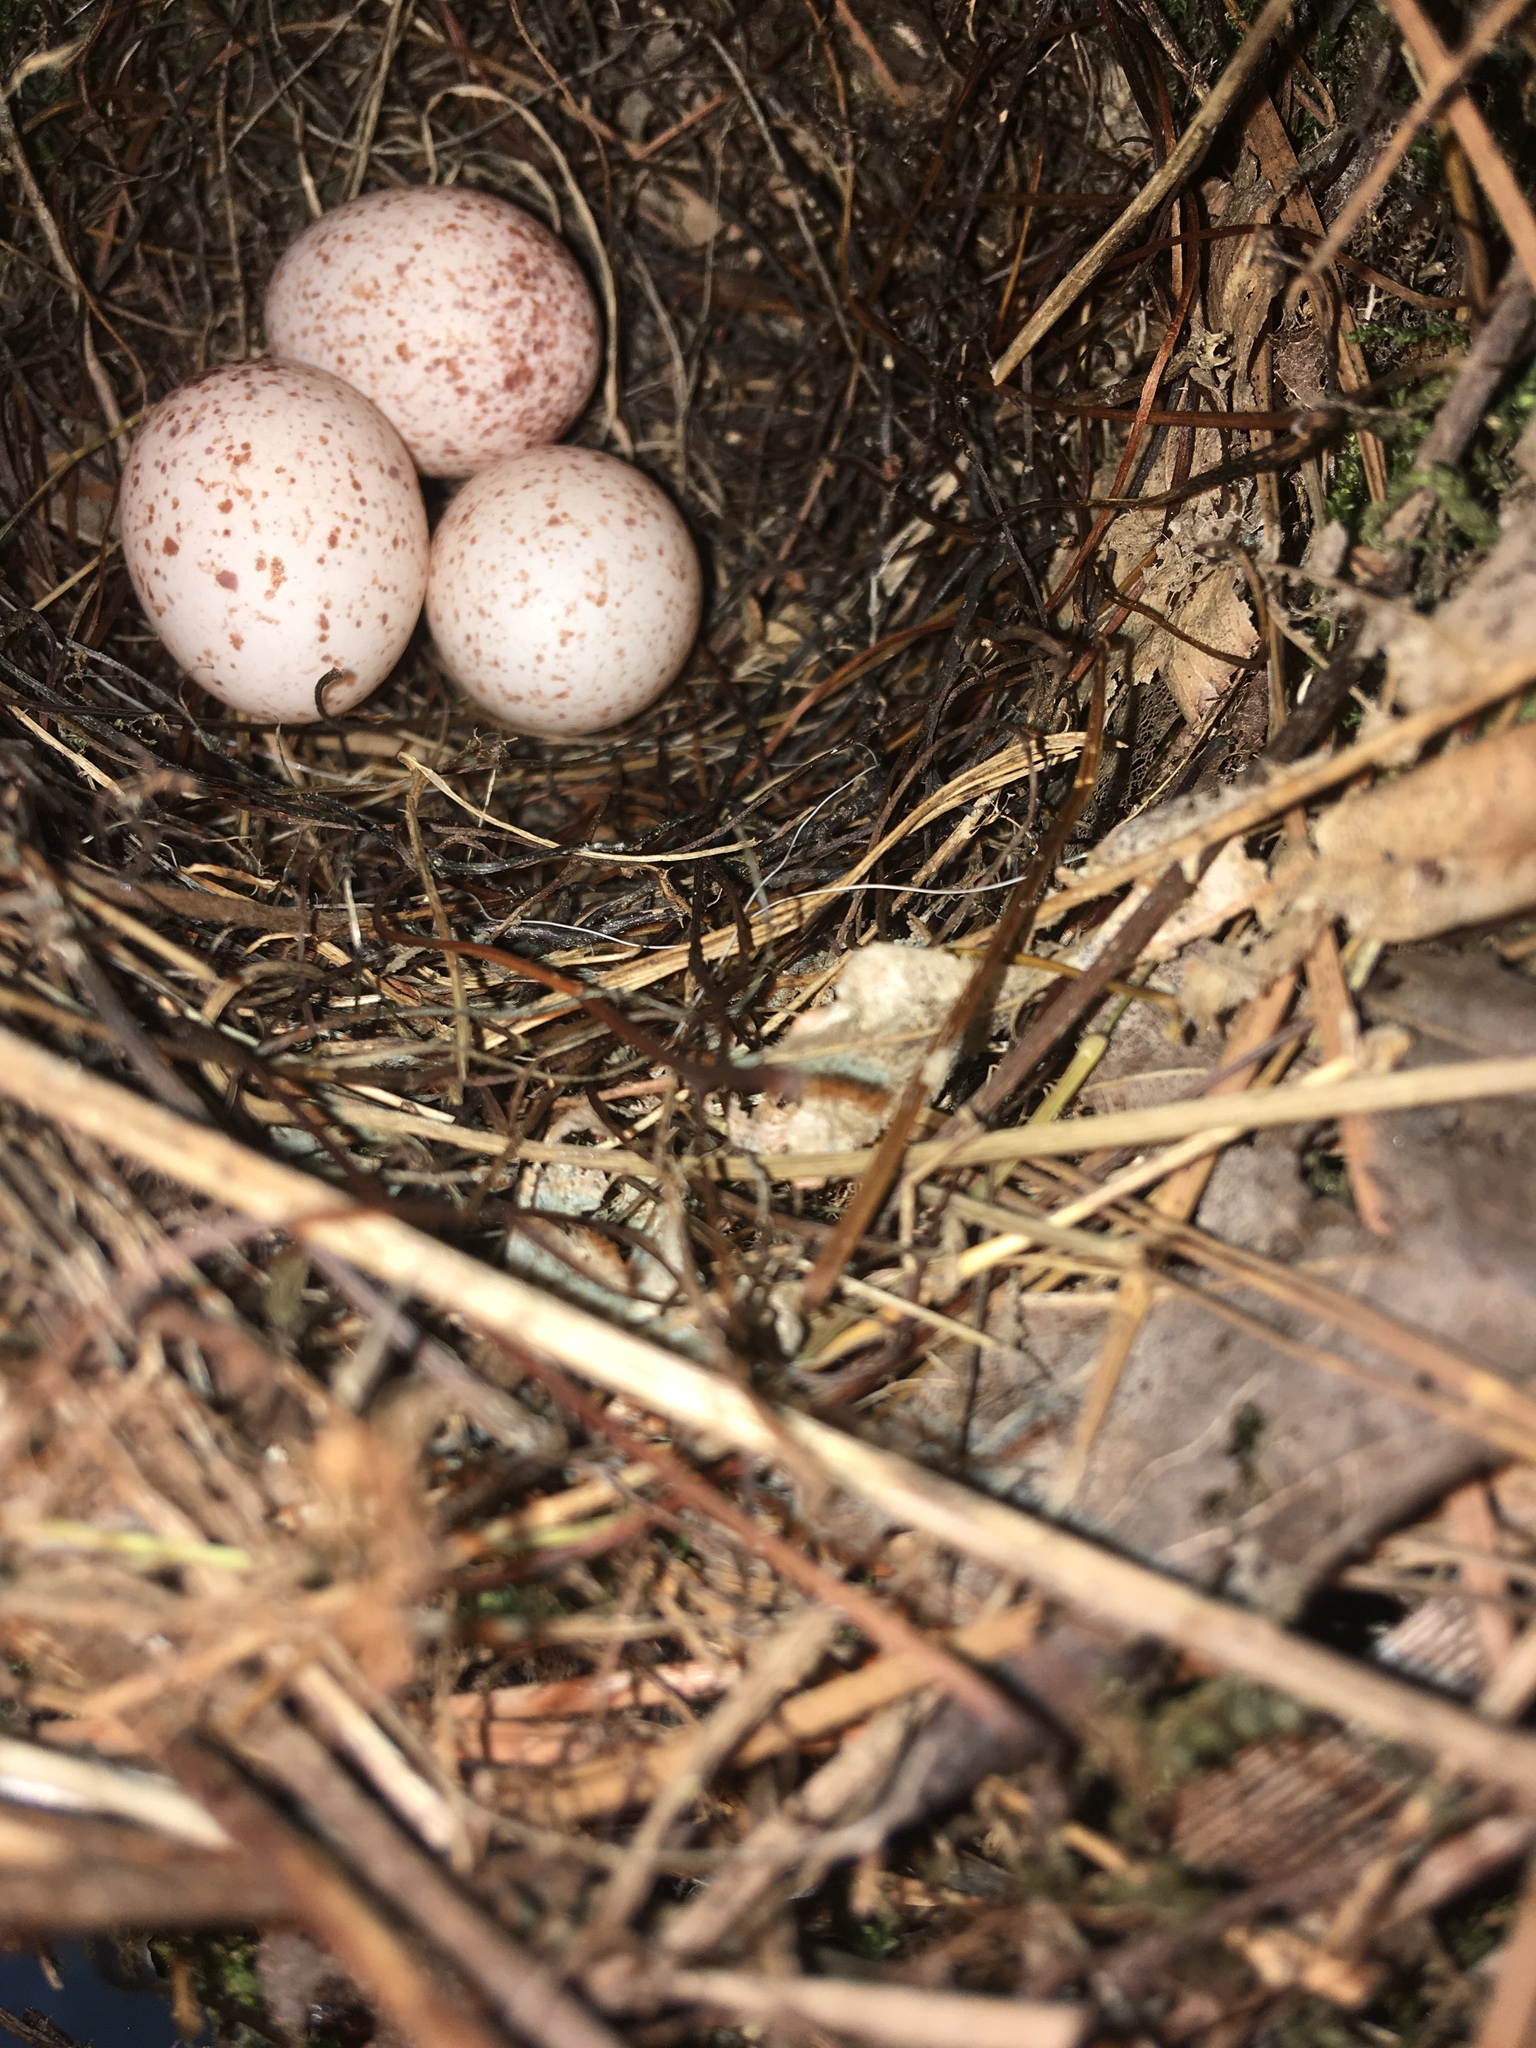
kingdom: Animalia
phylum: Chordata
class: Aves
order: Passeriformes
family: Troglodytidae
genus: Thryothorus
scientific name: Thryothorus ludovicianus
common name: Carolina wren
